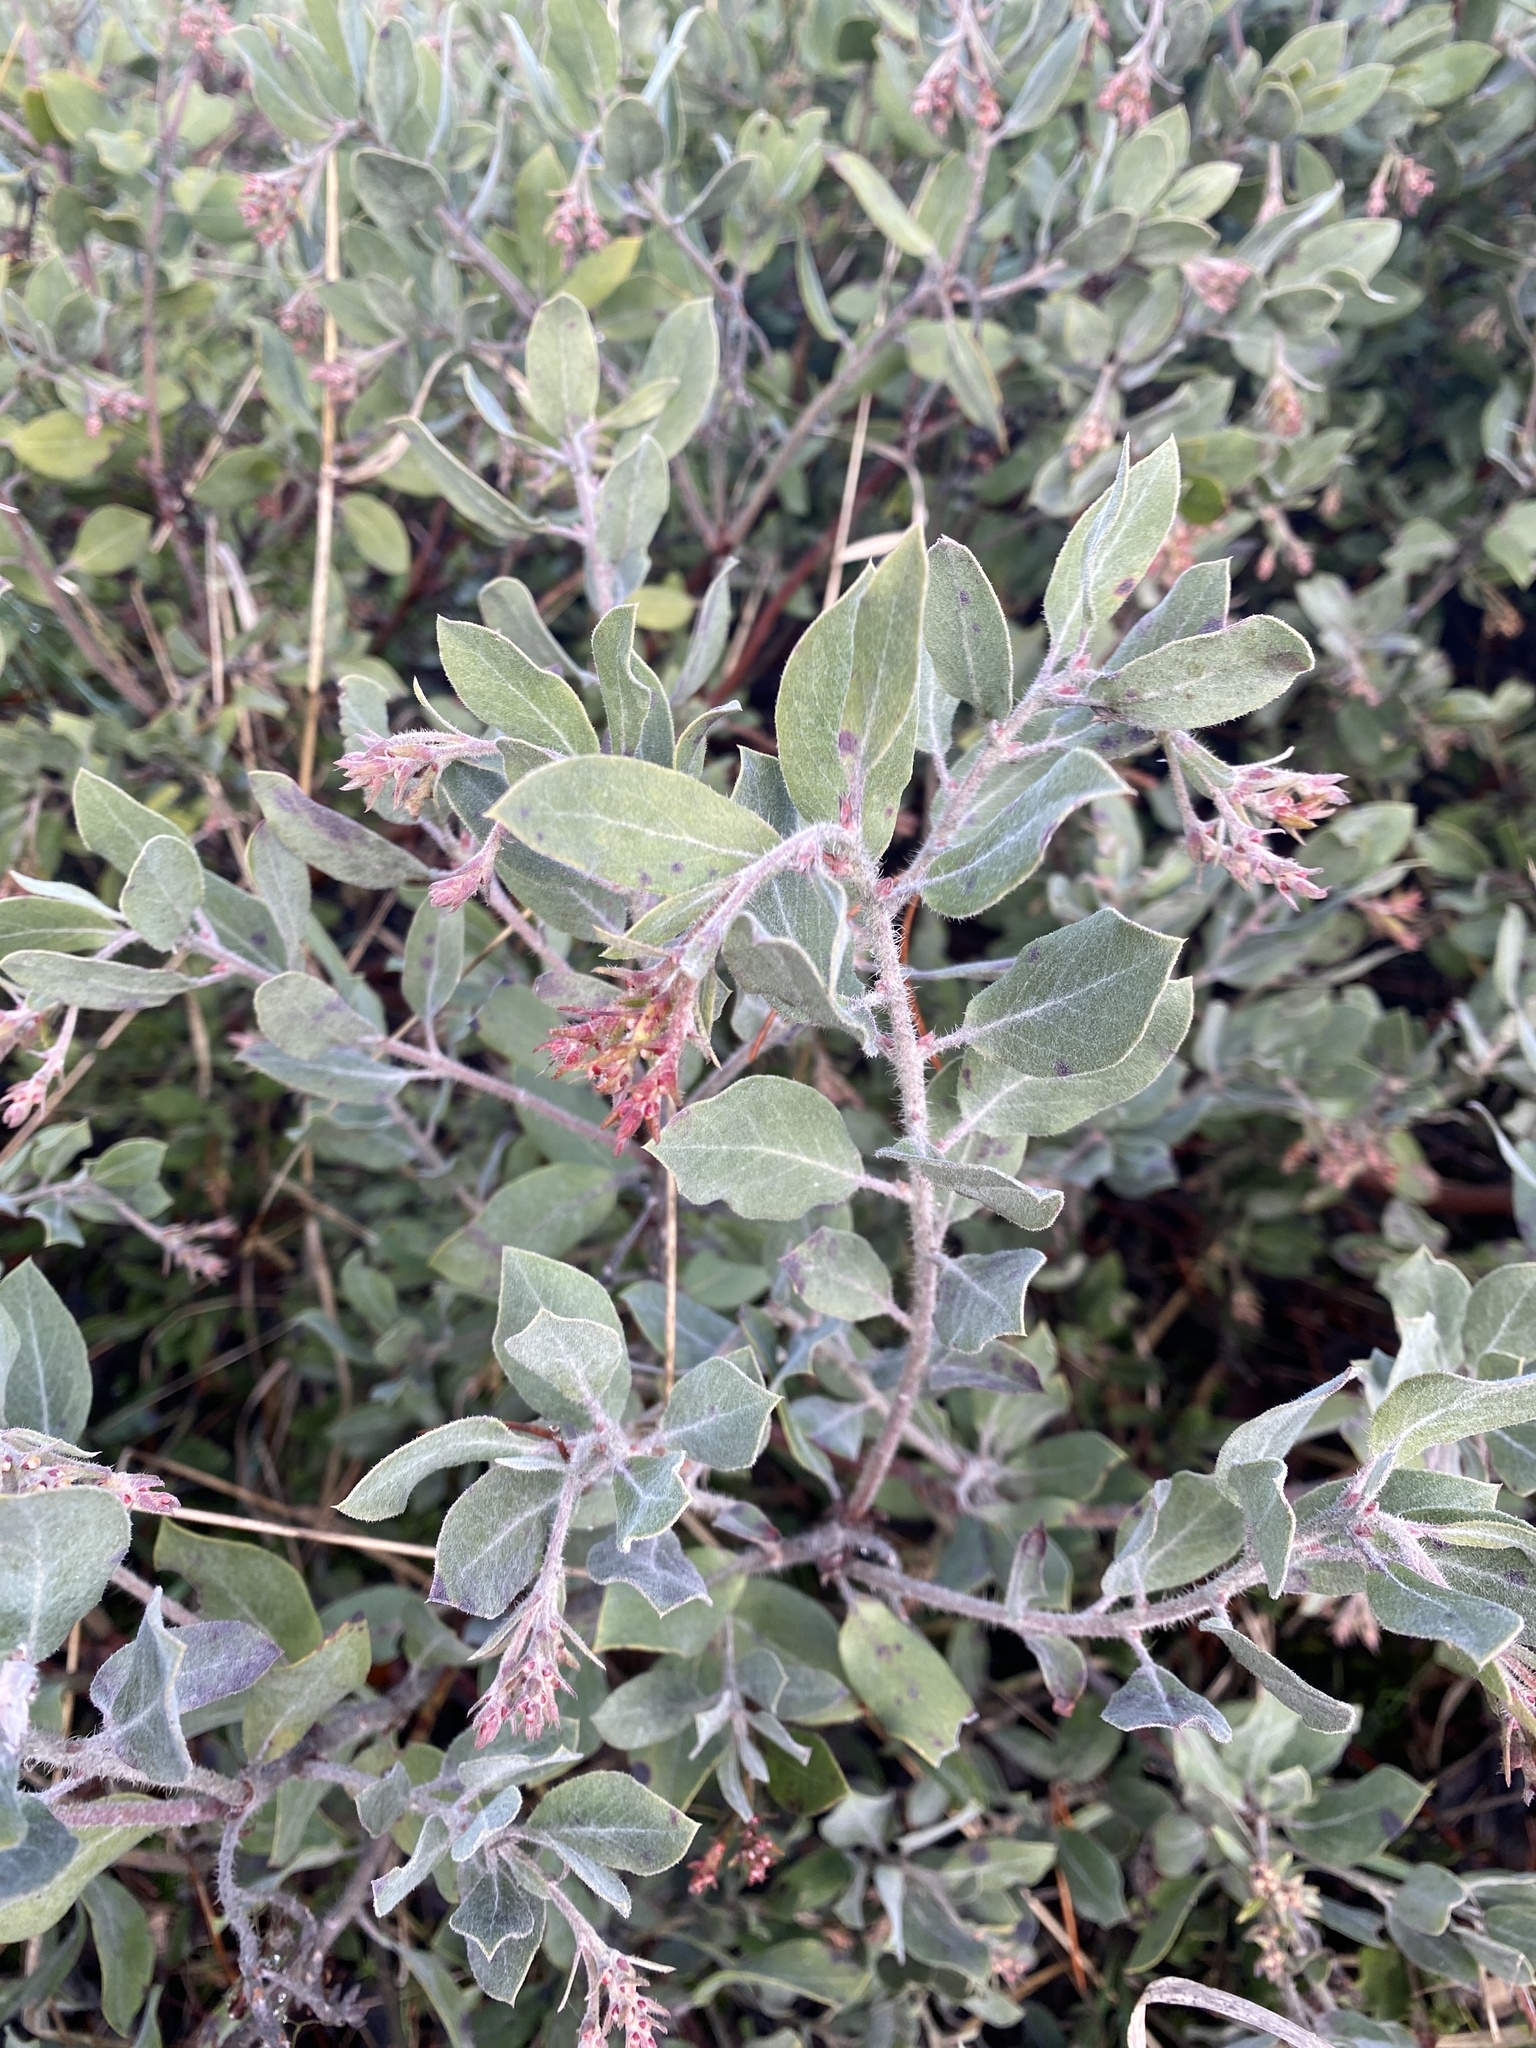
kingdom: Plantae
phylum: Tracheophyta
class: Magnoliopsida
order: Ericales
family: Ericaceae
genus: Arctostaphylos
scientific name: Arctostaphylos columbiana
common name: Bristly bearberry
